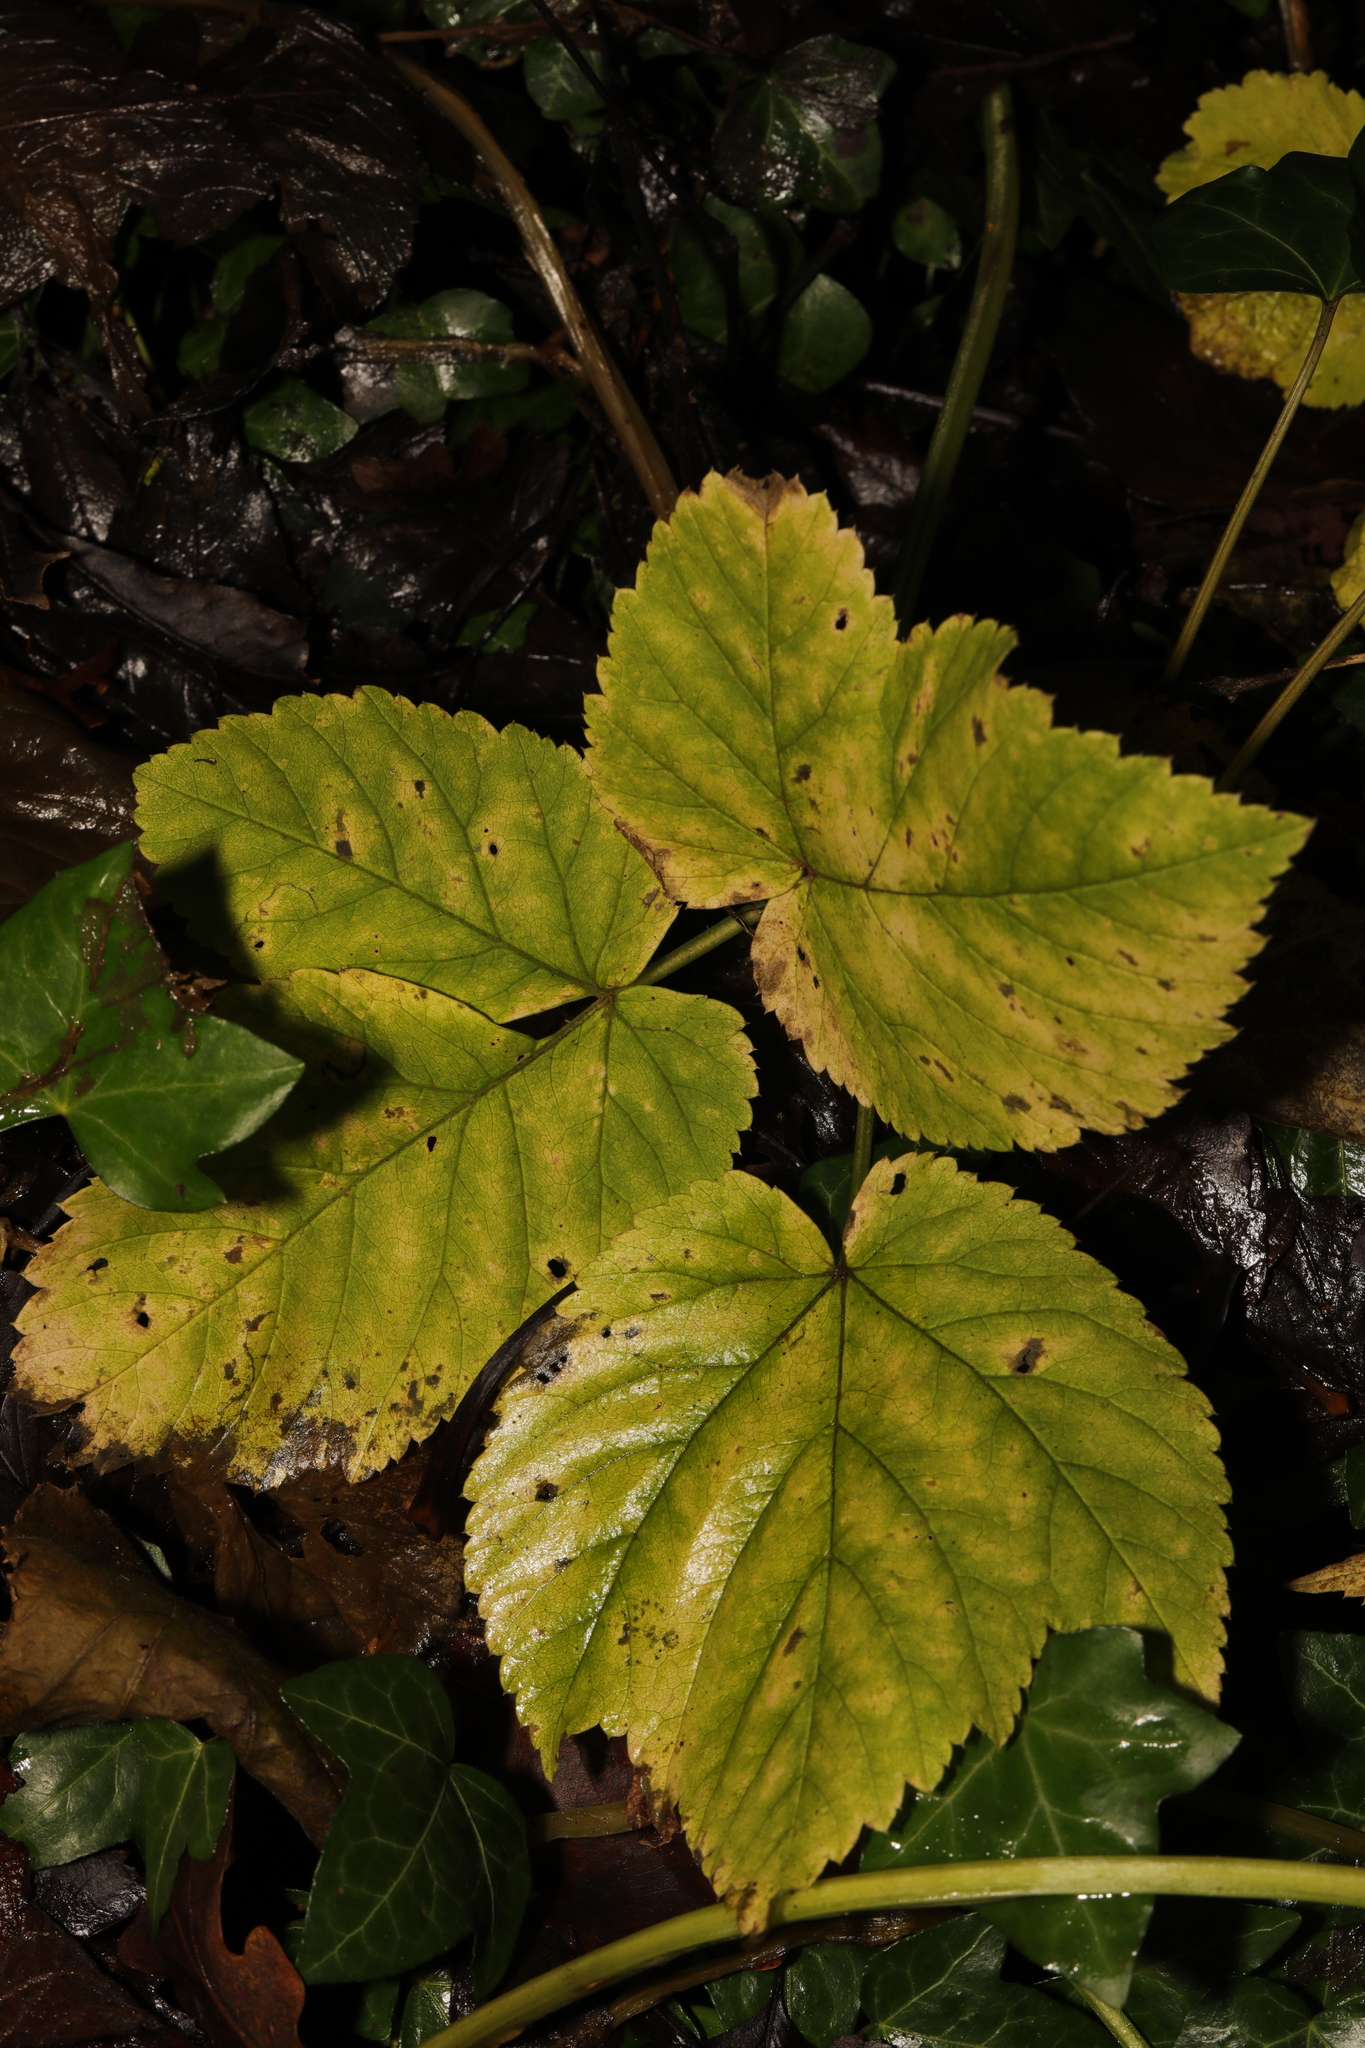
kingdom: Plantae
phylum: Tracheophyta
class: Magnoliopsida
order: Apiales
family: Apiaceae
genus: Aegopodium
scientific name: Aegopodium podagraria
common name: Ground-elder
